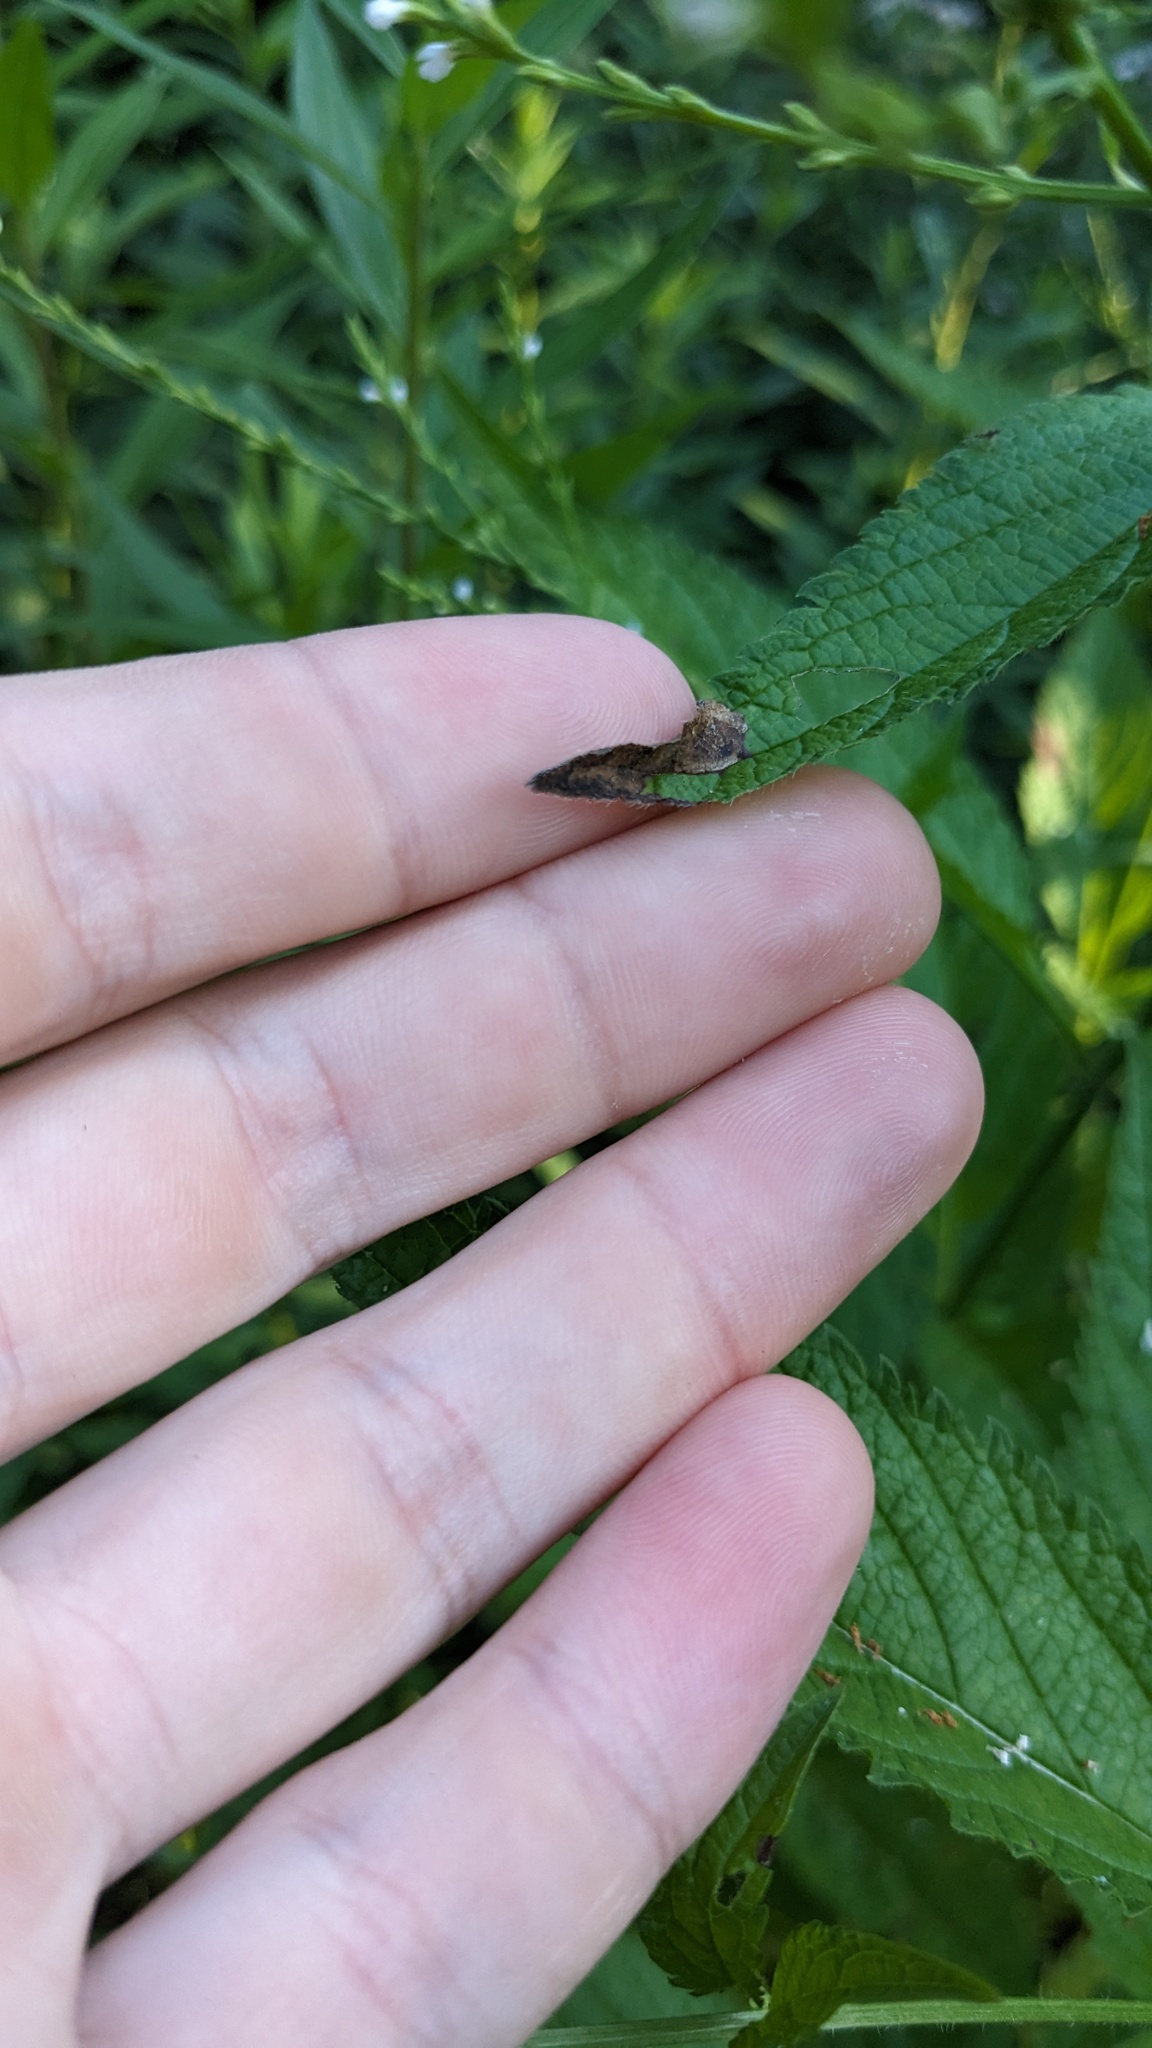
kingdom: Animalia
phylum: Arthropoda
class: Insecta
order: Diptera
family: Agromyzidae
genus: Calycomyza
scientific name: Calycomyza verbenae
